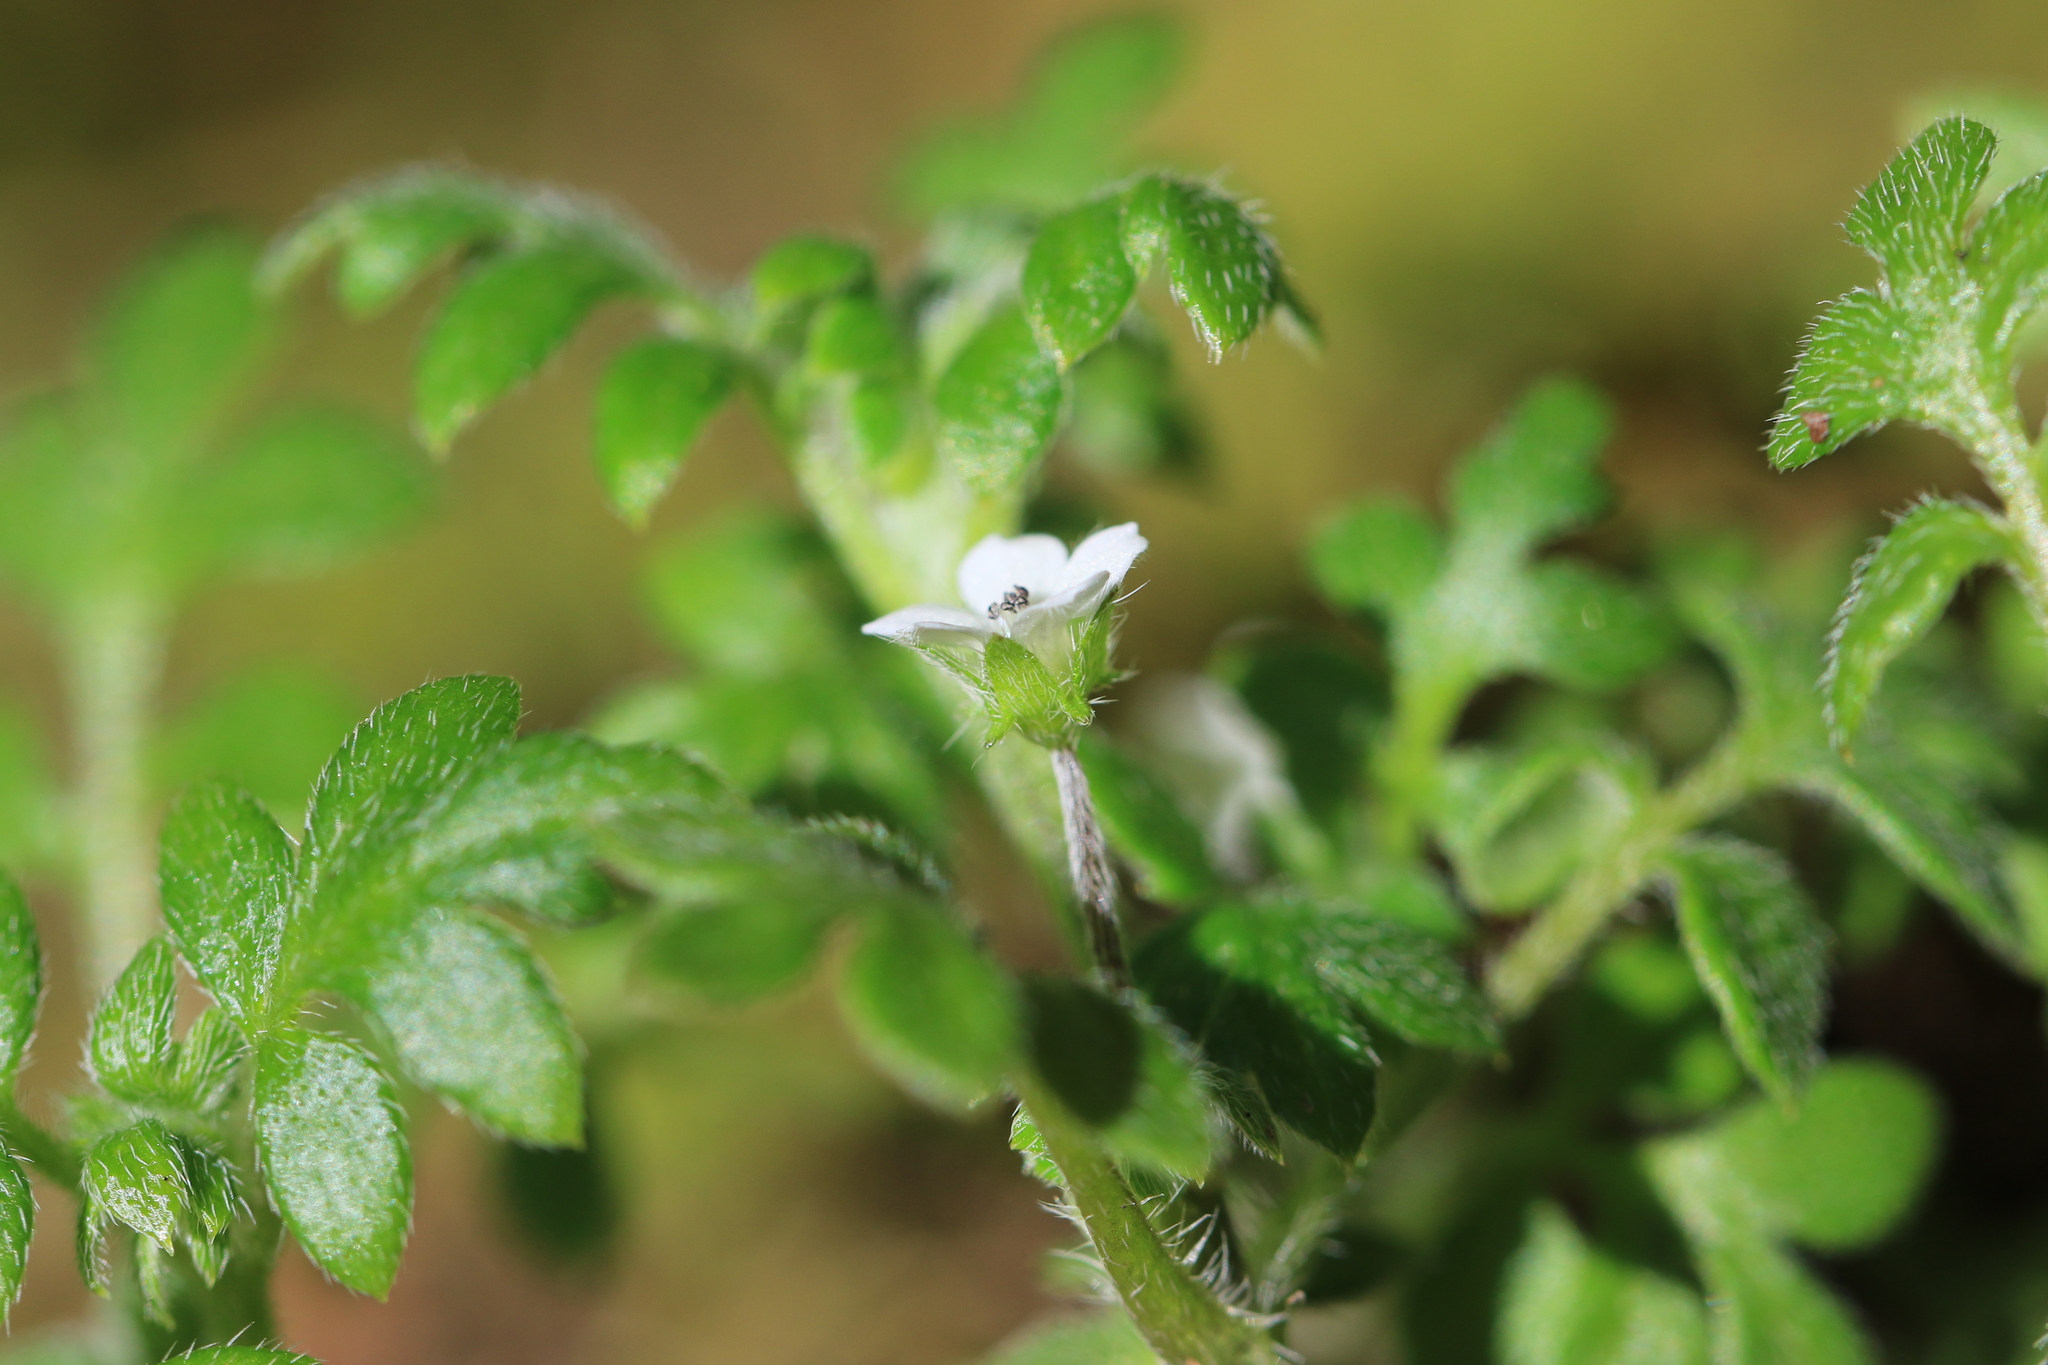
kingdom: Plantae
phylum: Tracheophyta
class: Magnoliopsida
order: Boraginales
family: Hydrophyllaceae
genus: Nemophila
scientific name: Nemophila parviflora
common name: Small-flowered baby-blue-eyes
